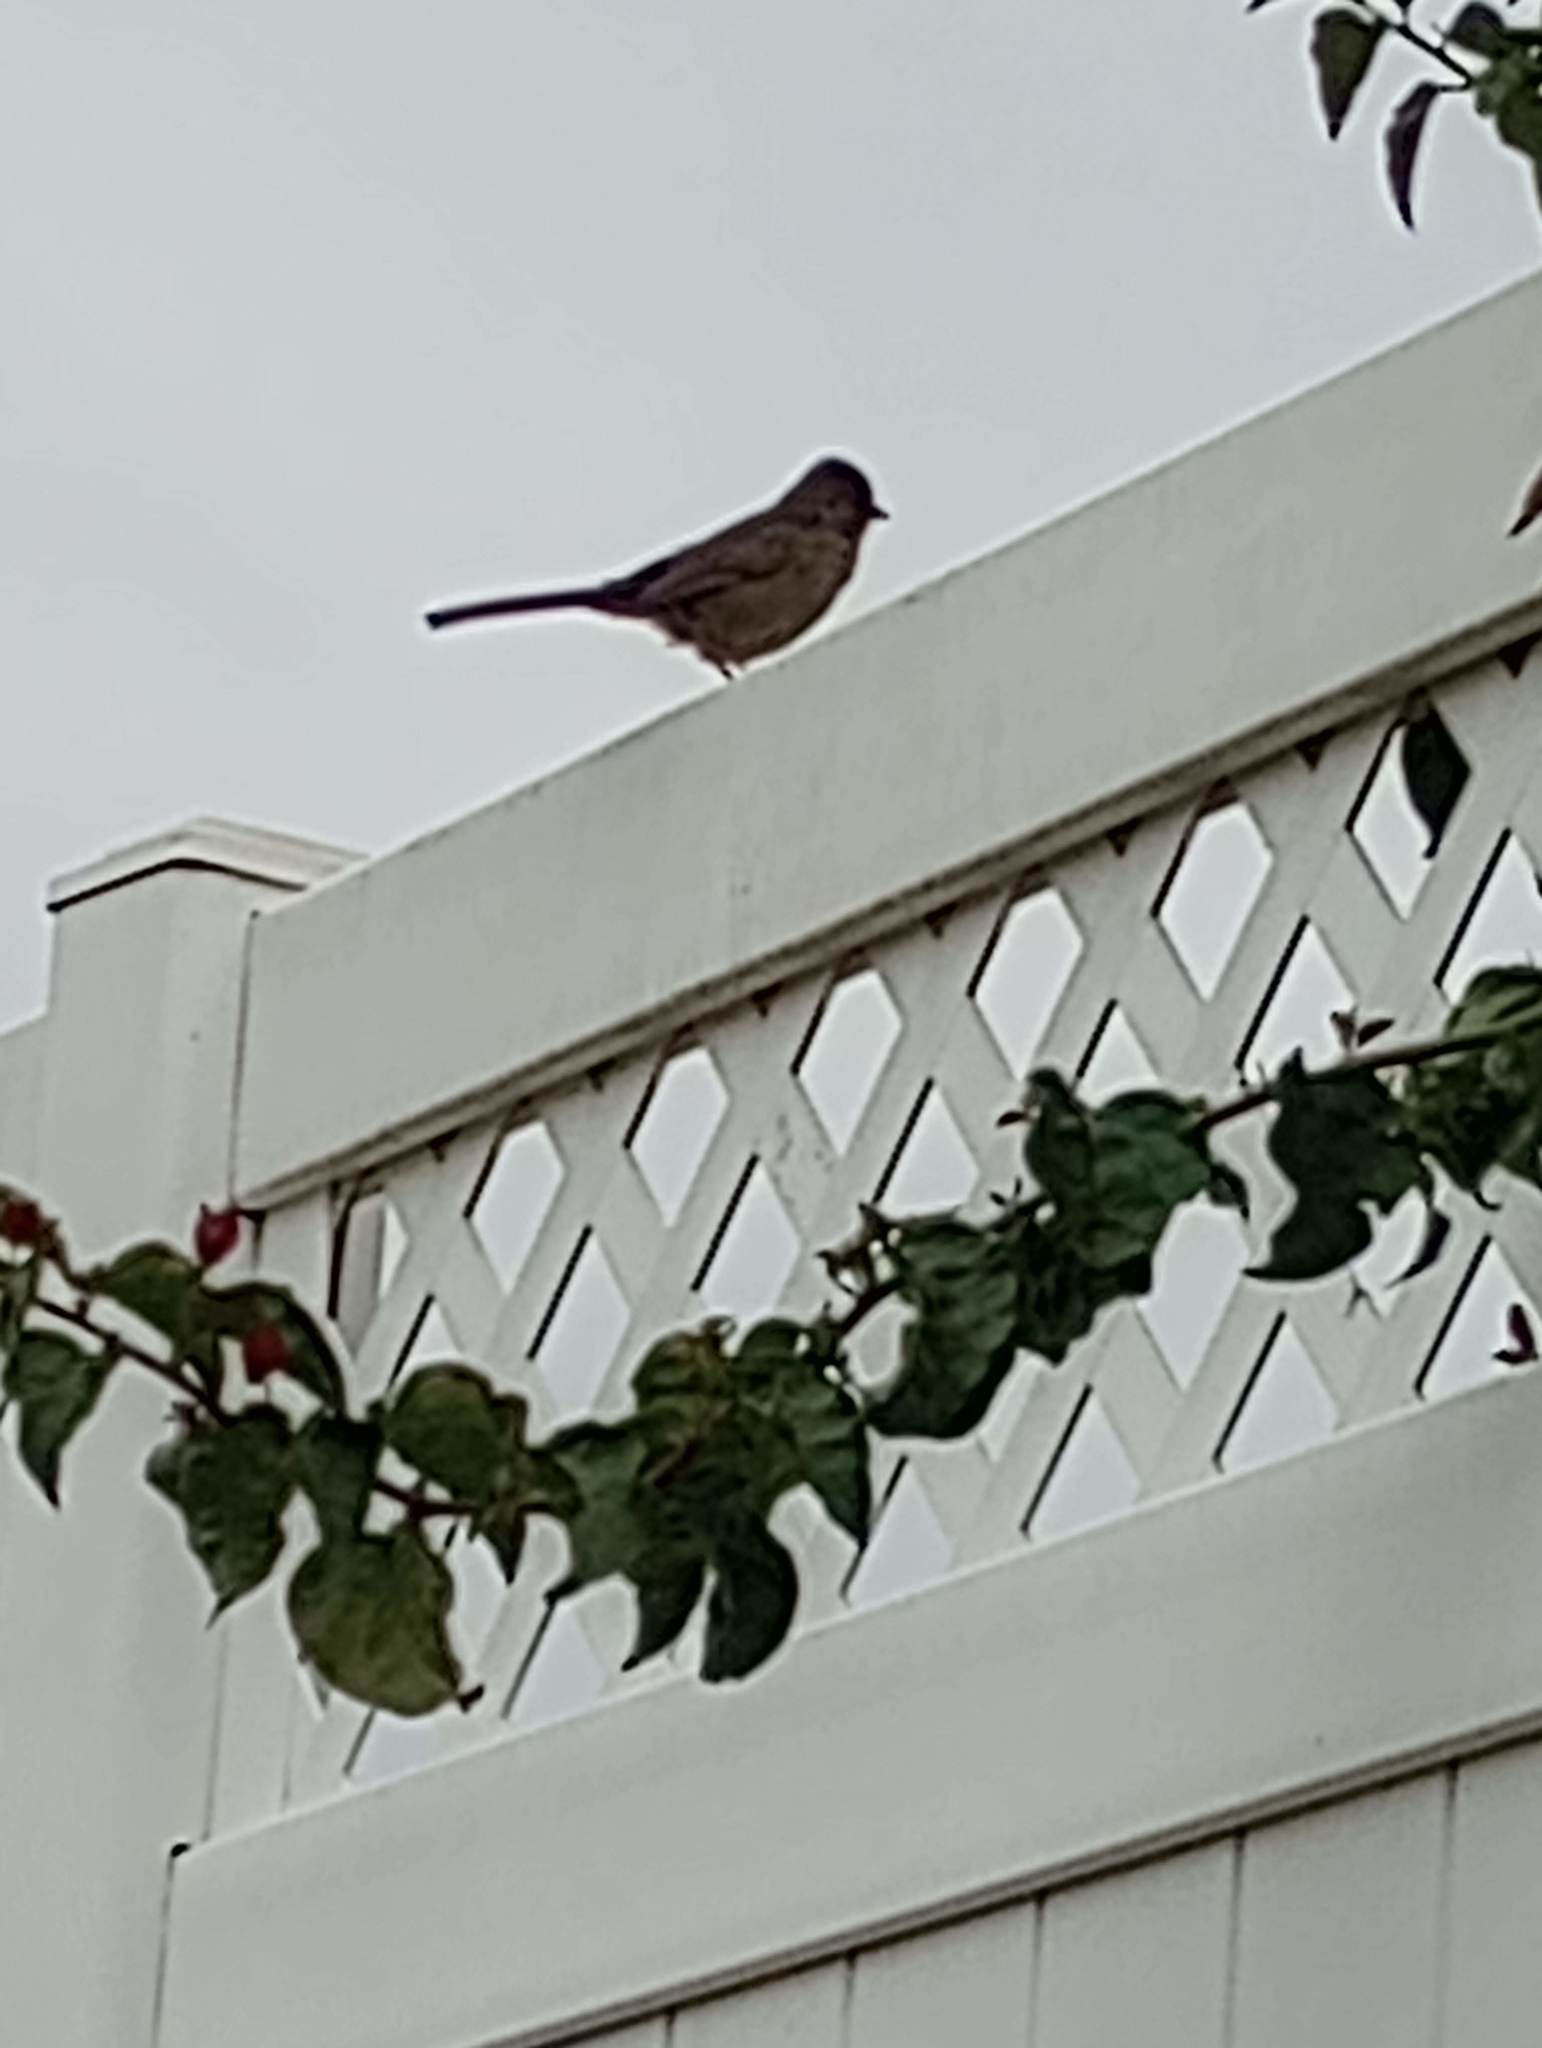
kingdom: Animalia
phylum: Chordata
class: Aves
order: Passeriformes
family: Passerellidae
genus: Melozone
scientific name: Melozone crissalis
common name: California towhee
